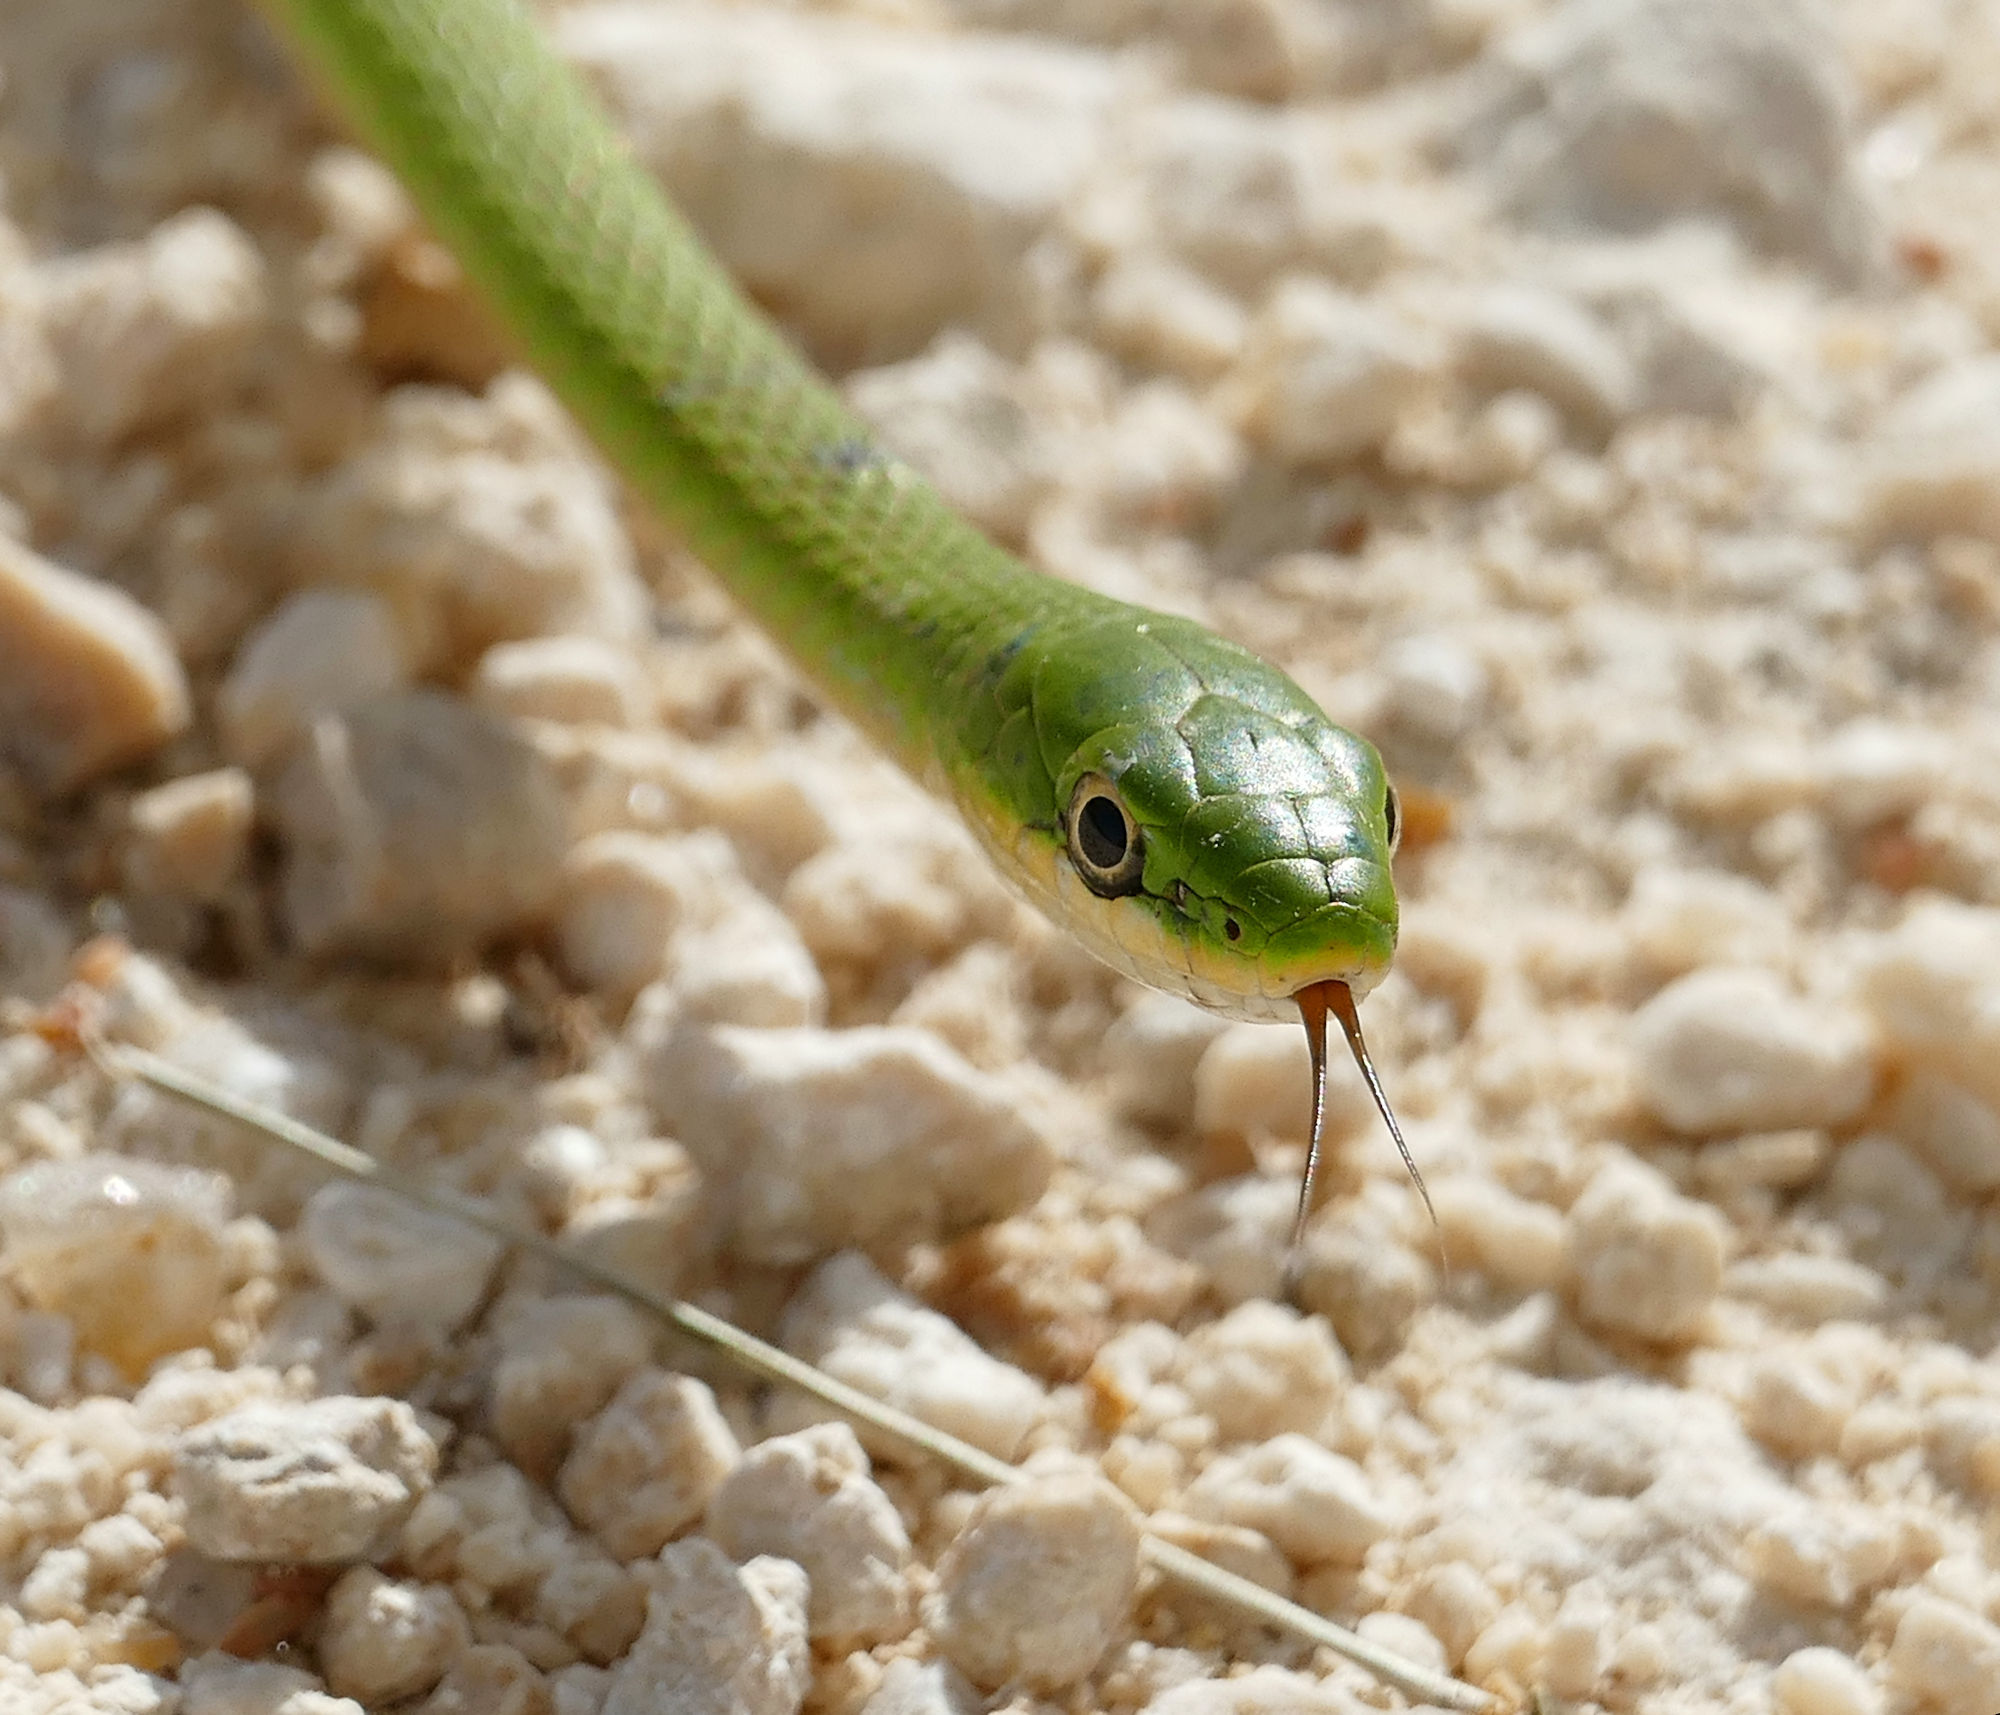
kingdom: Animalia
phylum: Chordata
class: Squamata
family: Colubridae
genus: Opheodrys
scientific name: Opheodrys aestivus
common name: Rough greensnake
